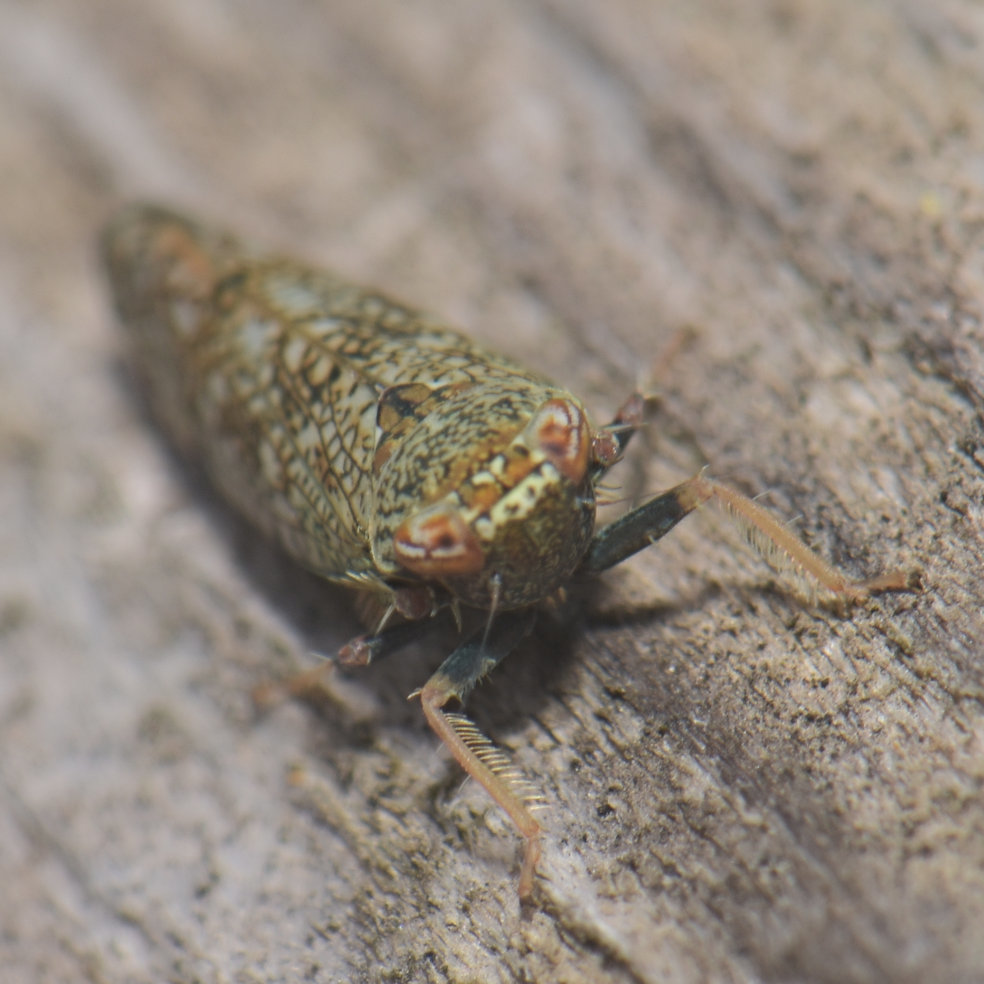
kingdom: Animalia
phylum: Arthropoda
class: Insecta
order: Hemiptera
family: Cicadellidae
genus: Orientus
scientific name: Orientus ishidae
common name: Japanese leafhopper
